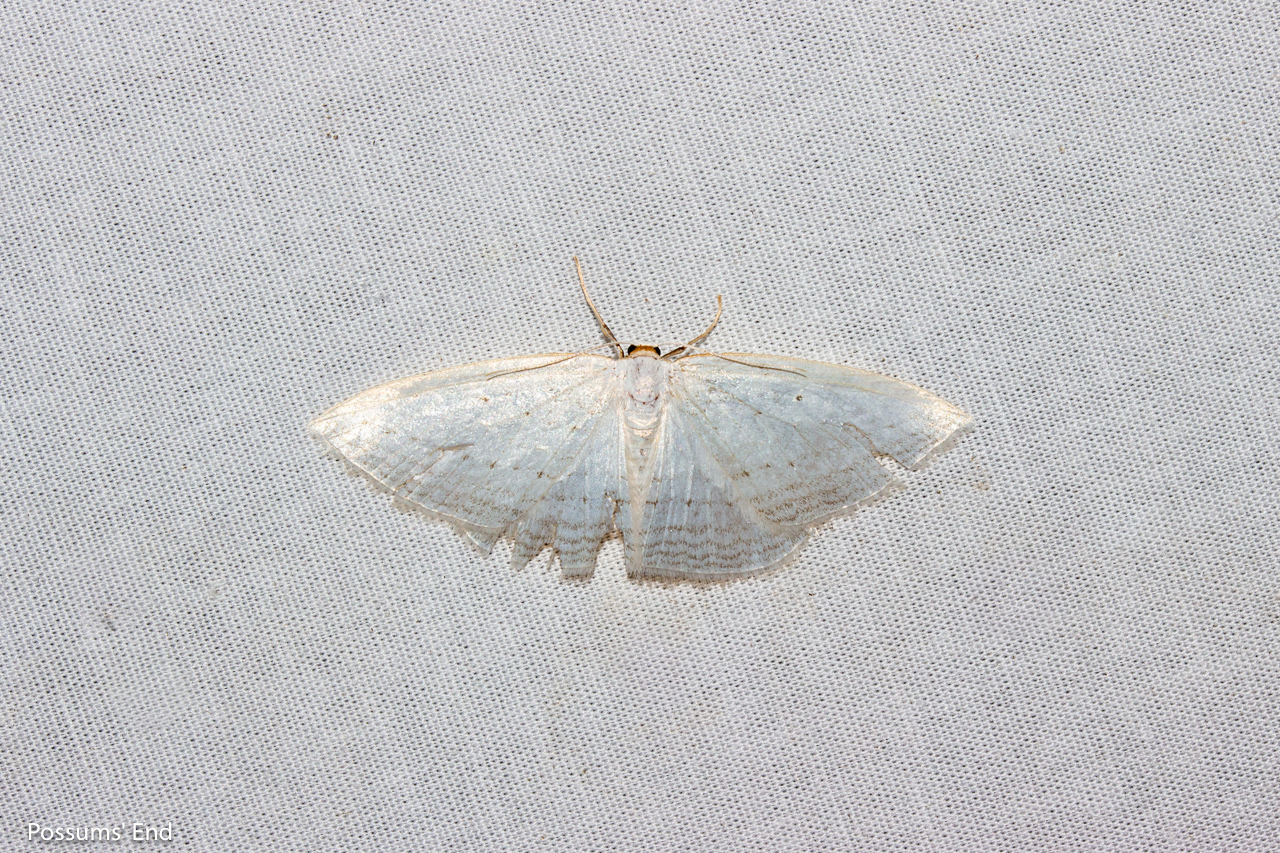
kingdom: Animalia
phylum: Arthropoda
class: Insecta
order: Lepidoptera
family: Geometridae
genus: Orthoclydon
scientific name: Orthoclydon praefectata
